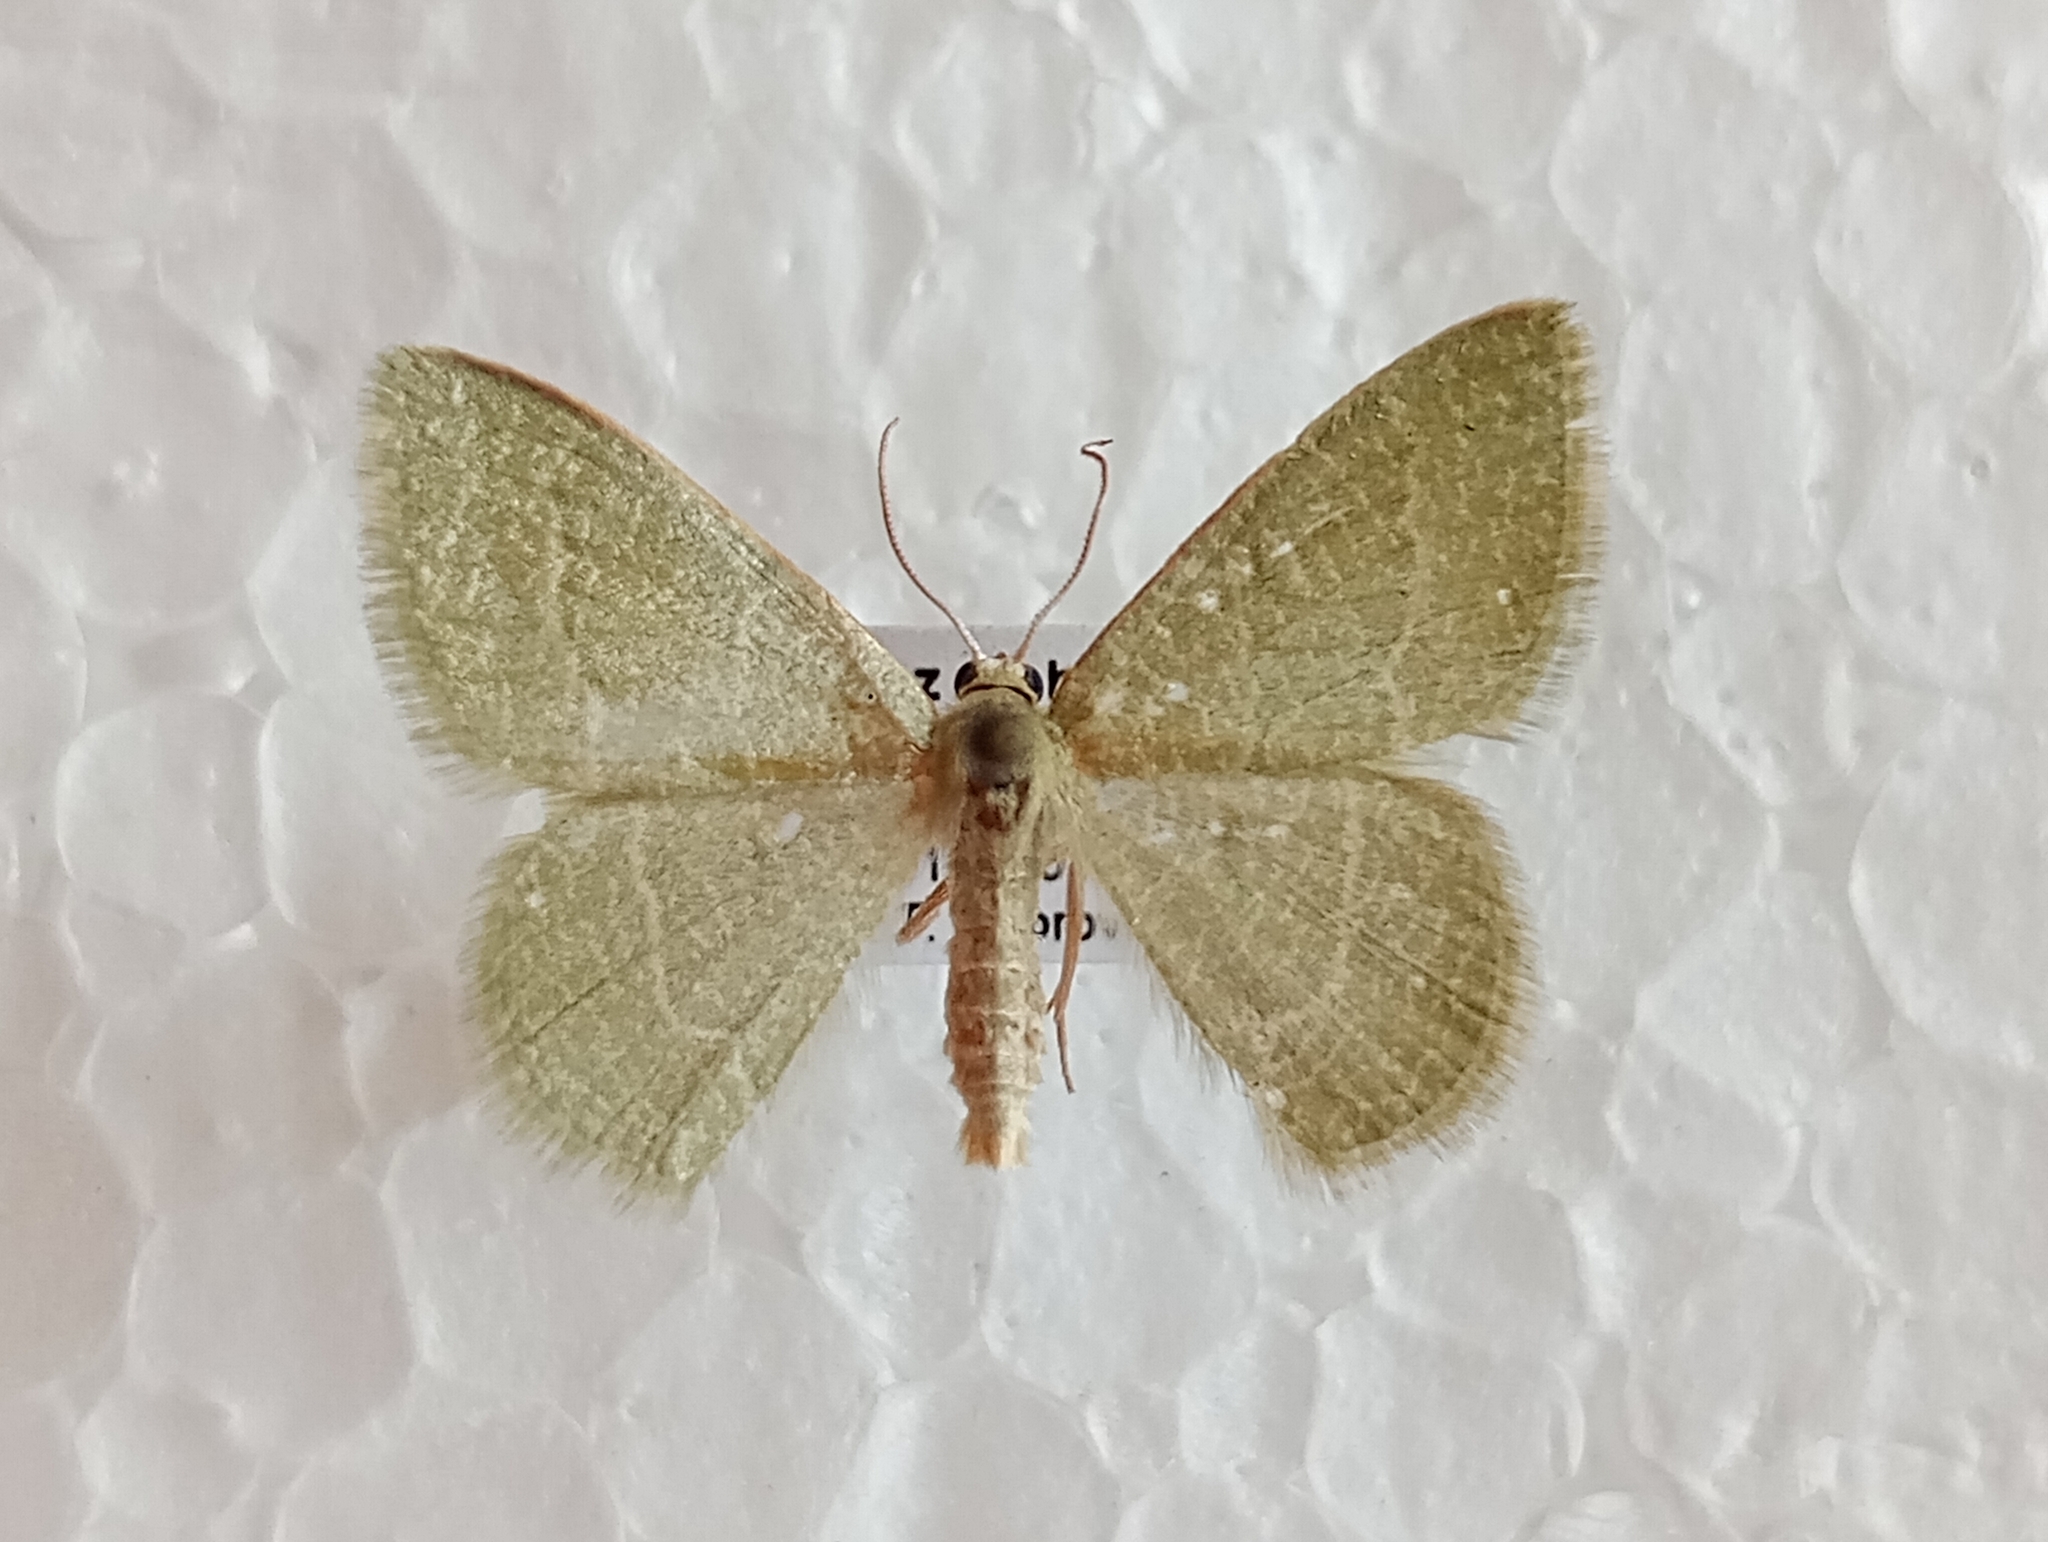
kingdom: Animalia
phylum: Arthropoda
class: Insecta
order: Lepidoptera
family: Geometridae
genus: Chlorissa
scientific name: Chlorissa etruscaria
